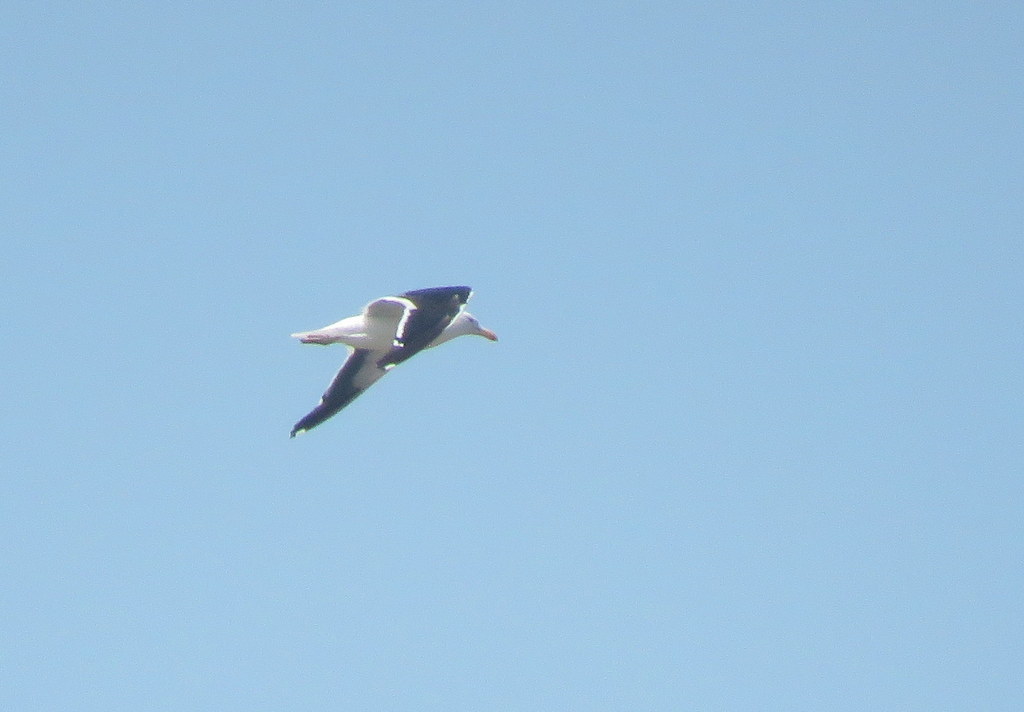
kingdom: Animalia
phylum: Chordata
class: Aves
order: Charadriiformes
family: Laridae
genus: Larus
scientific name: Larus dominicanus
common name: Kelp gull
